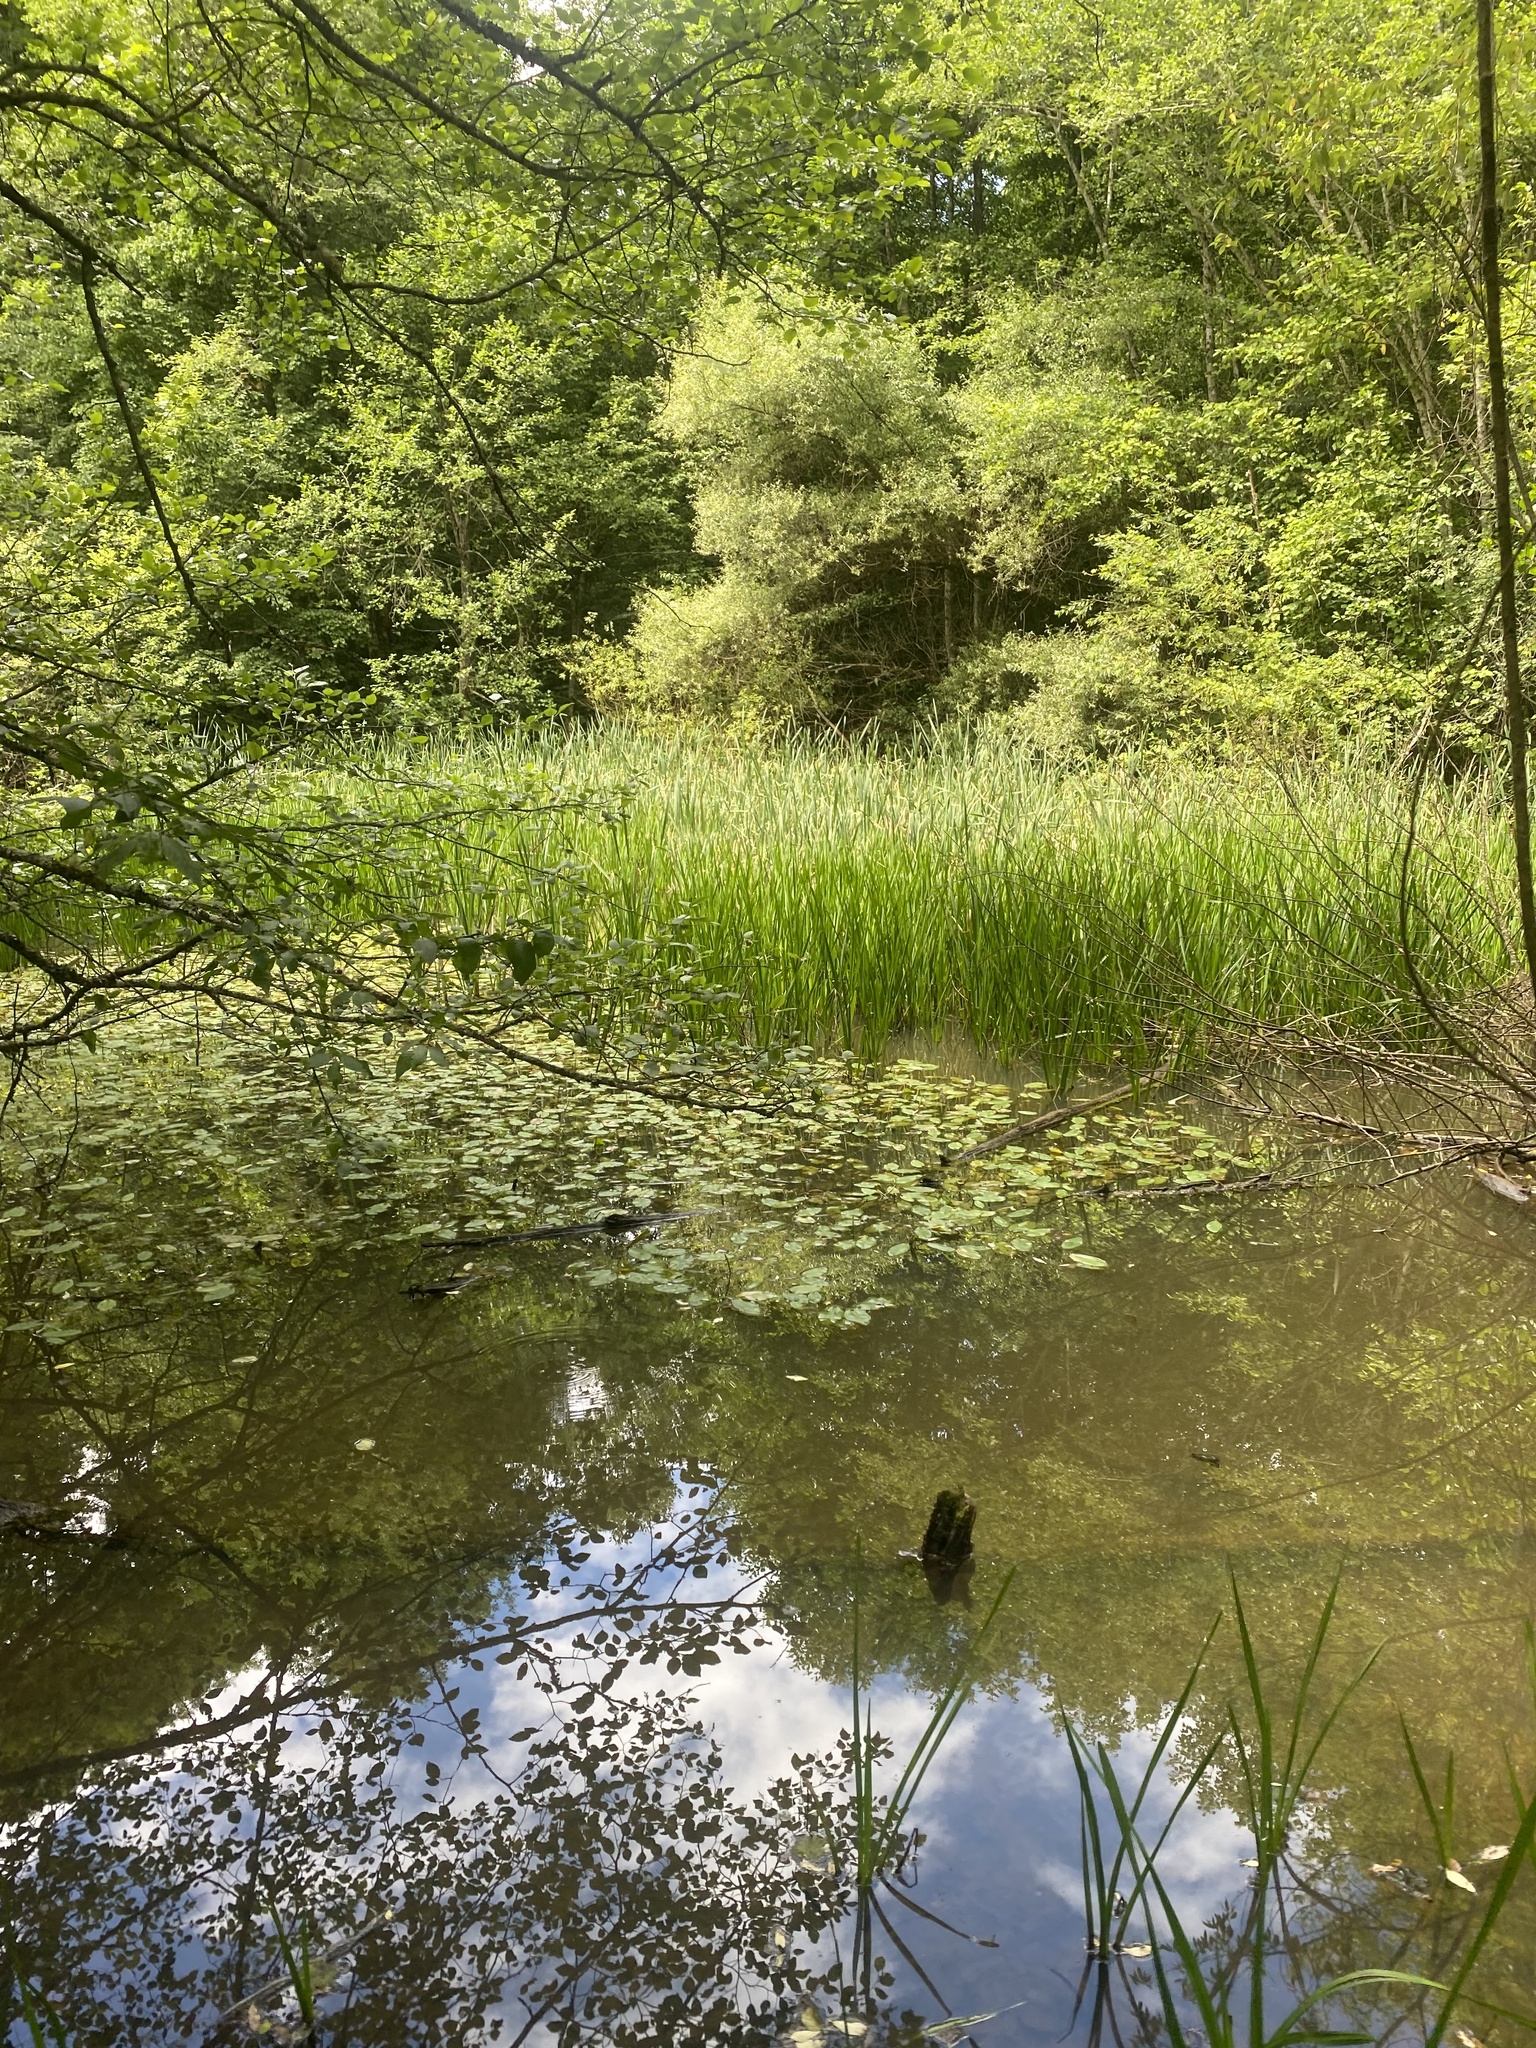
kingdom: Plantae
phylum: Tracheophyta
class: Liliopsida
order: Alismatales
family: Potamogetonaceae
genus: Potamogeton
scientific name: Potamogeton natans
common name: Broad-leaved pondweed
